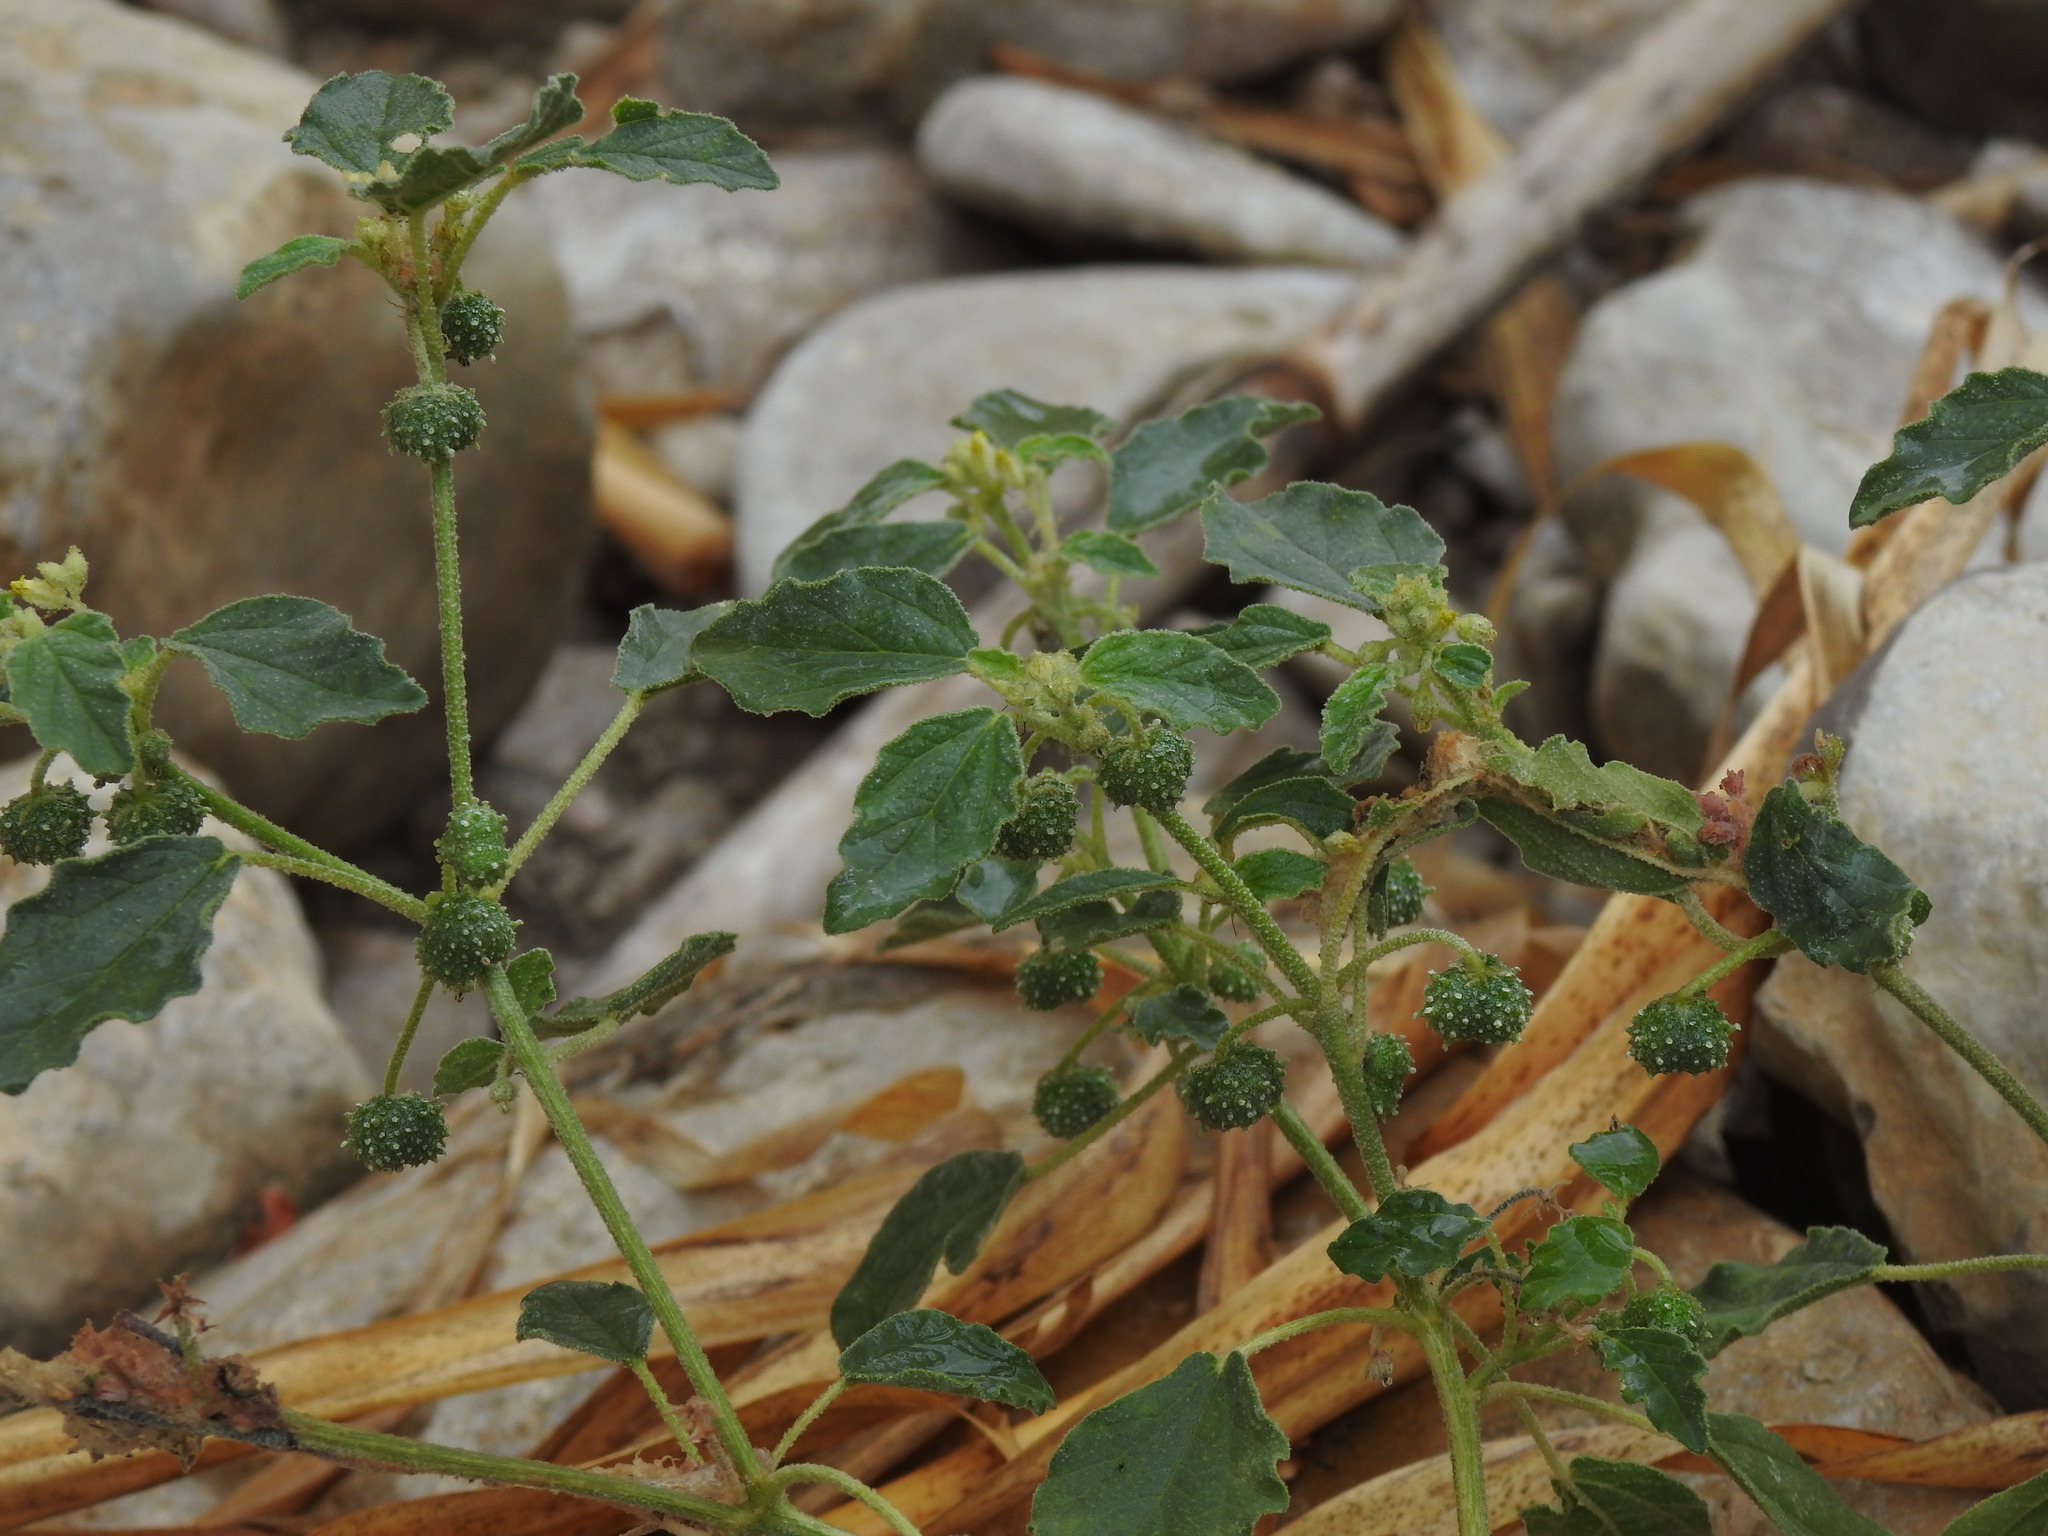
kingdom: Plantae
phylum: Tracheophyta
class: Magnoliopsida
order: Malpighiales
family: Euphorbiaceae
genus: Chrozophora
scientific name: Chrozophora tinctoria
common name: Dyer's litmus
